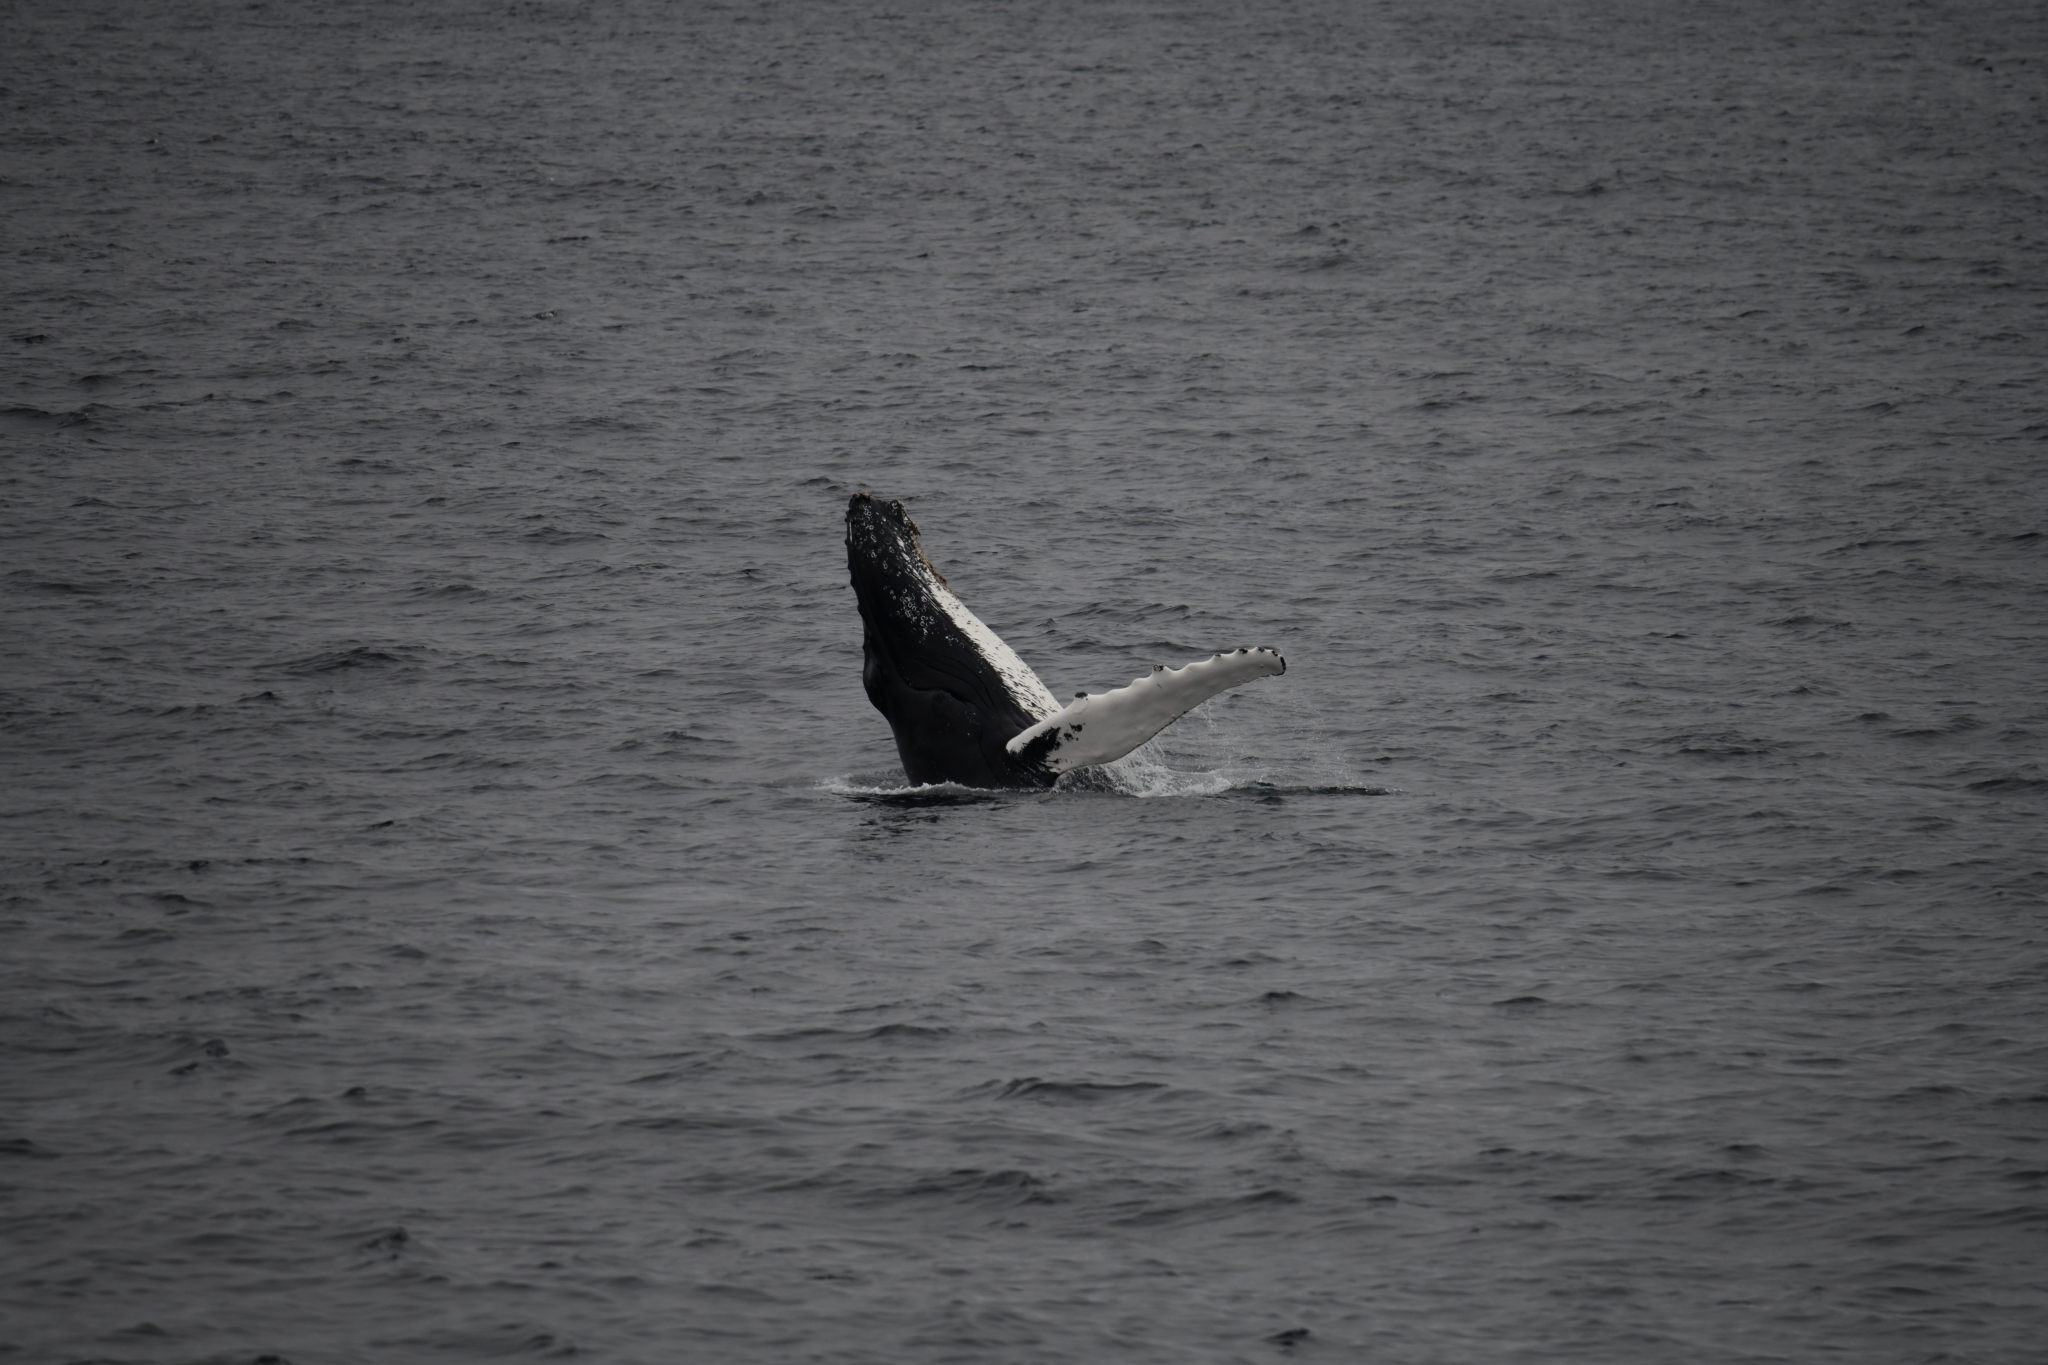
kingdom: Animalia
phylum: Chordata
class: Mammalia
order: Cetacea
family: Balaenopteridae
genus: Megaptera
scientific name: Megaptera novaeangliae
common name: Humpback whale
